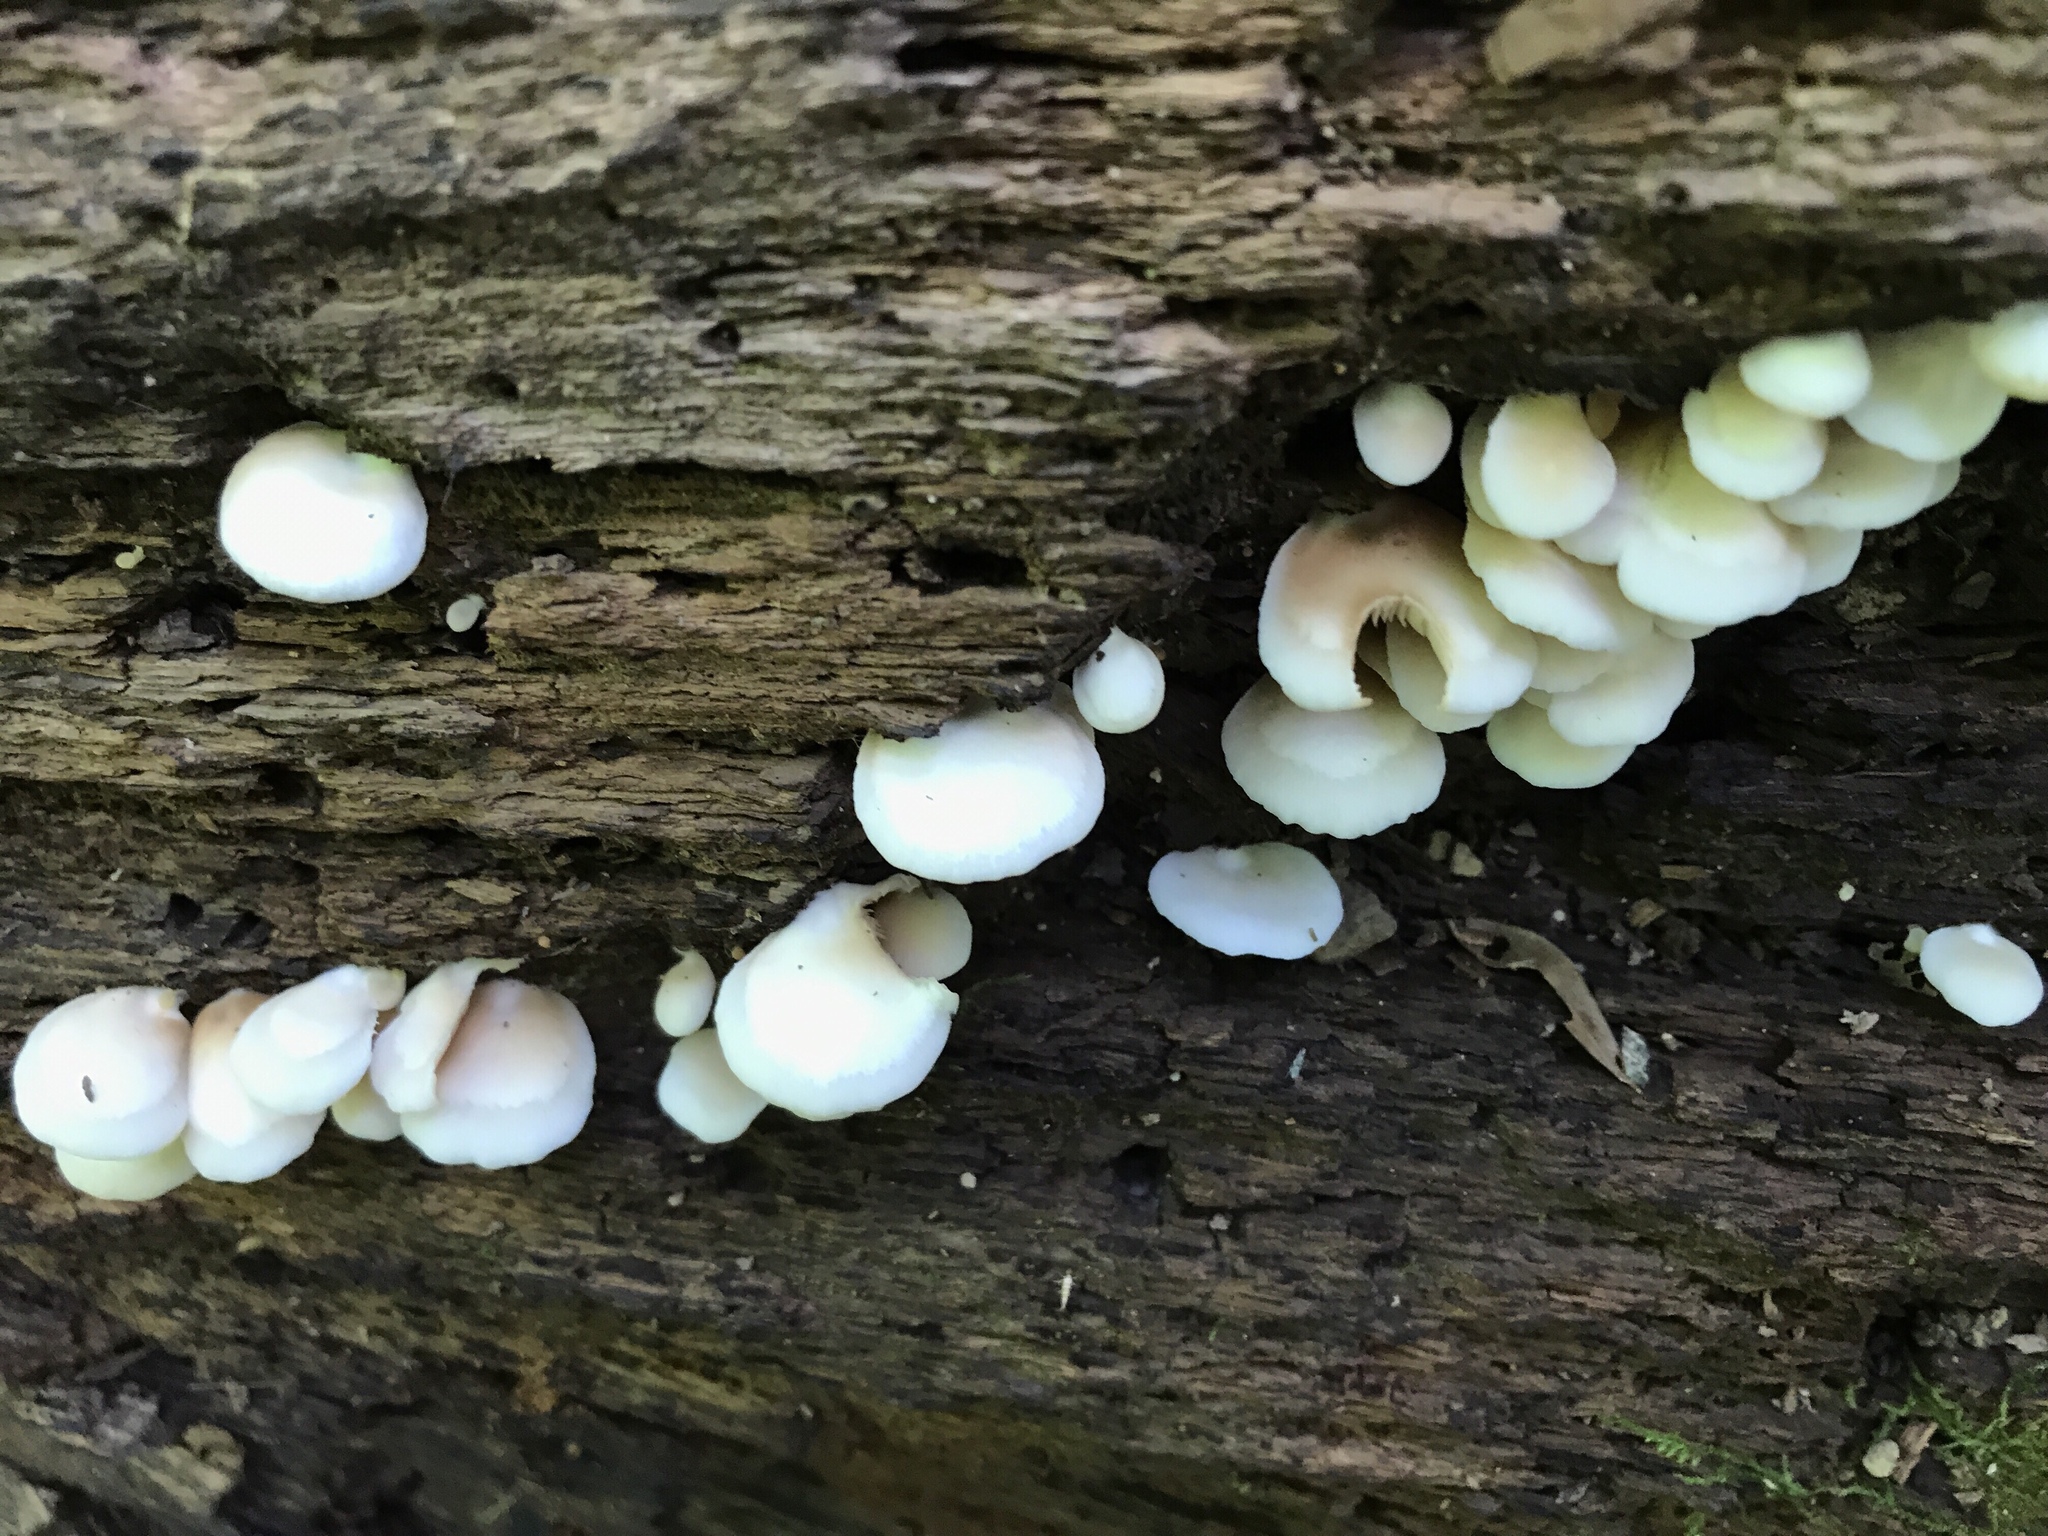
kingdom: Fungi
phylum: Basidiomycota
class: Agaricomycetes
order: Agaricales
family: Crepidotaceae
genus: Crepidotus
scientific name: Crepidotus applanatus
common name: Flat crep
